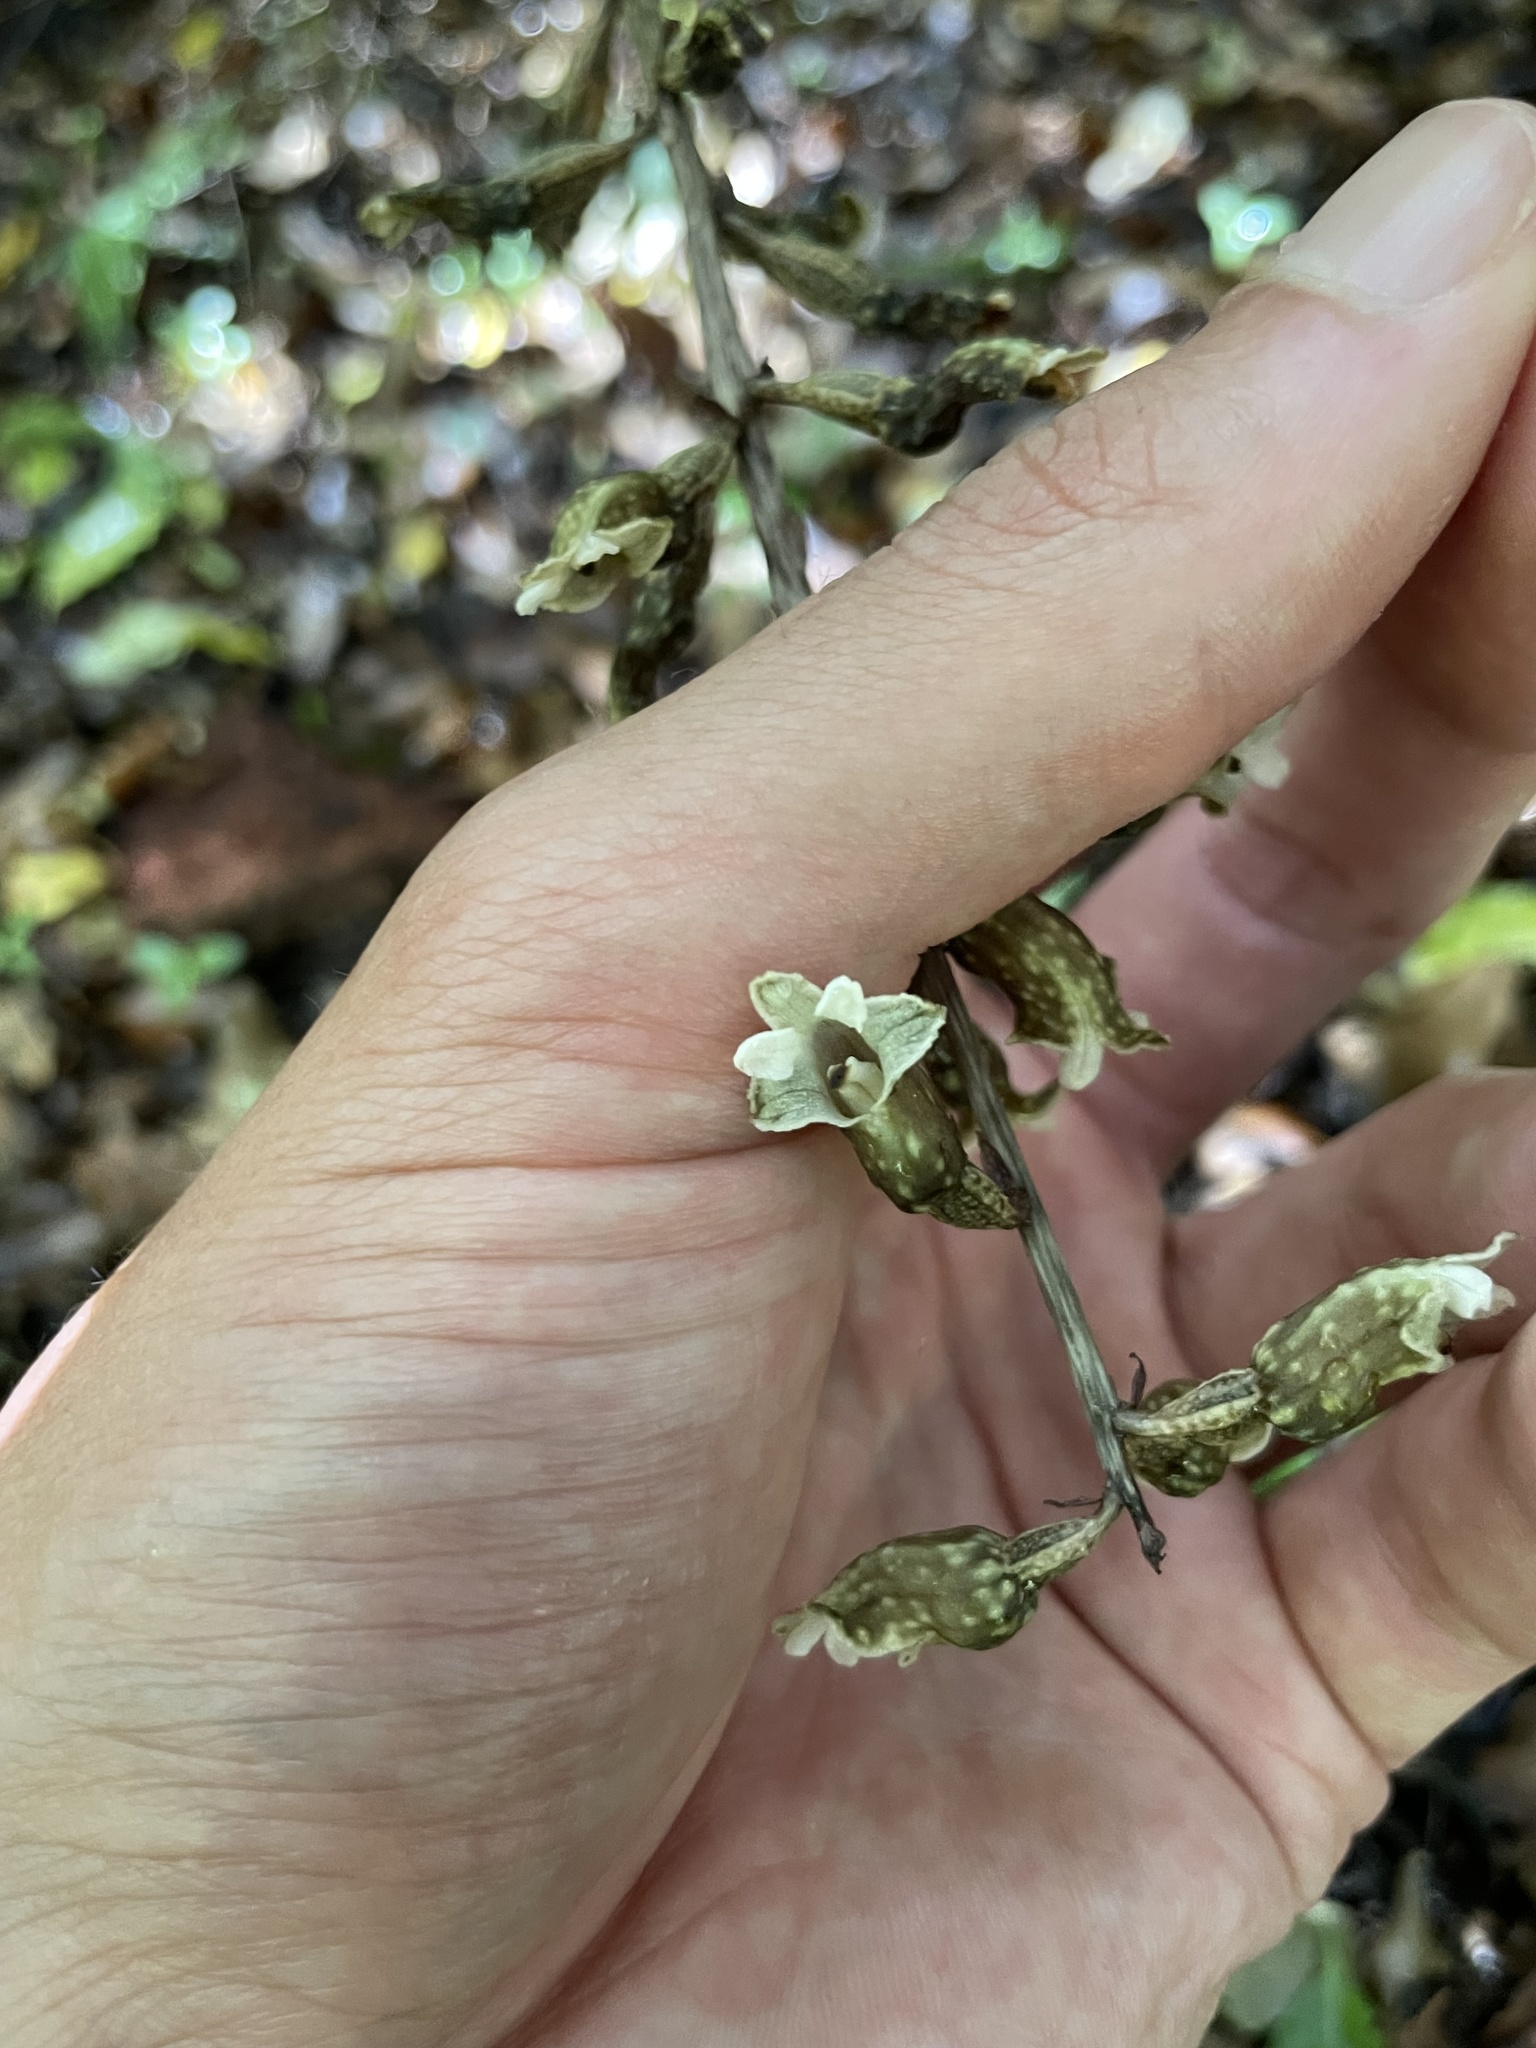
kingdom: Plantae
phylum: Tracheophyta
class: Liliopsida
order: Asparagales
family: Orchidaceae
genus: Gastrodia
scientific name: Gastrodia cunninghamii
